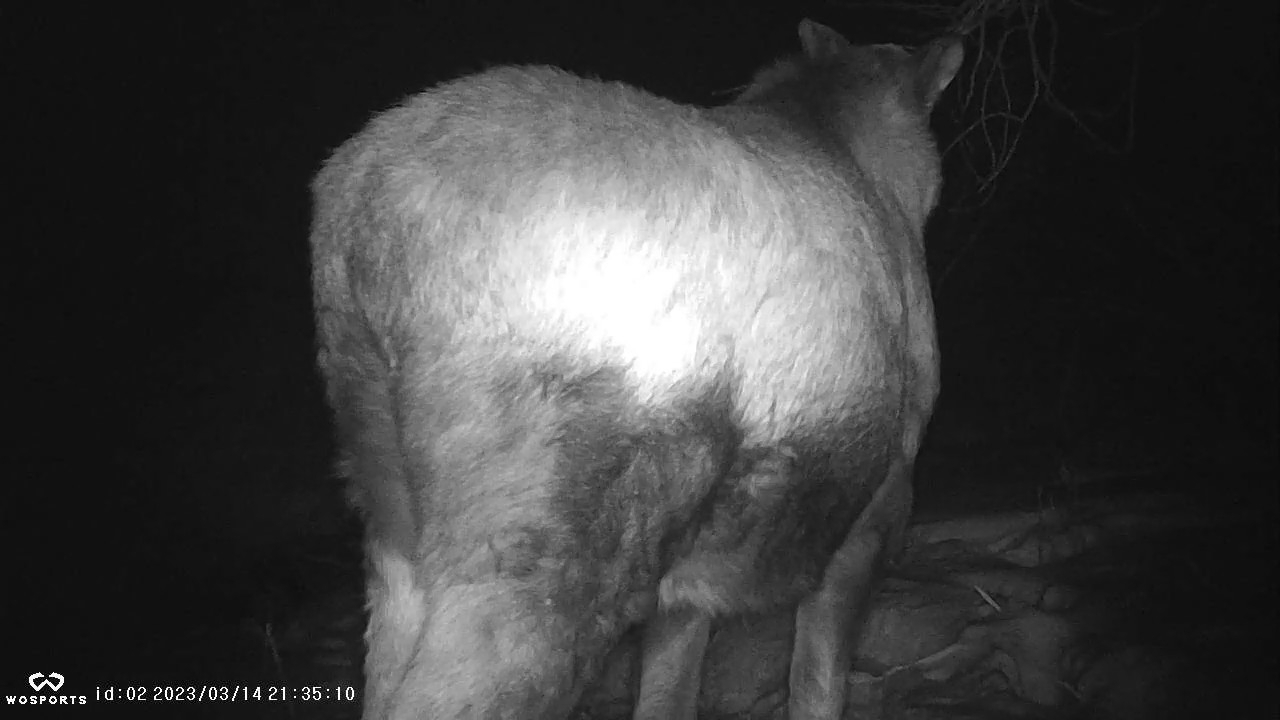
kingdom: Animalia
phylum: Chordata
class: Mammalia
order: Artiodactyla
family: Cervidae
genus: Alces
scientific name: Alces alces
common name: Moose
